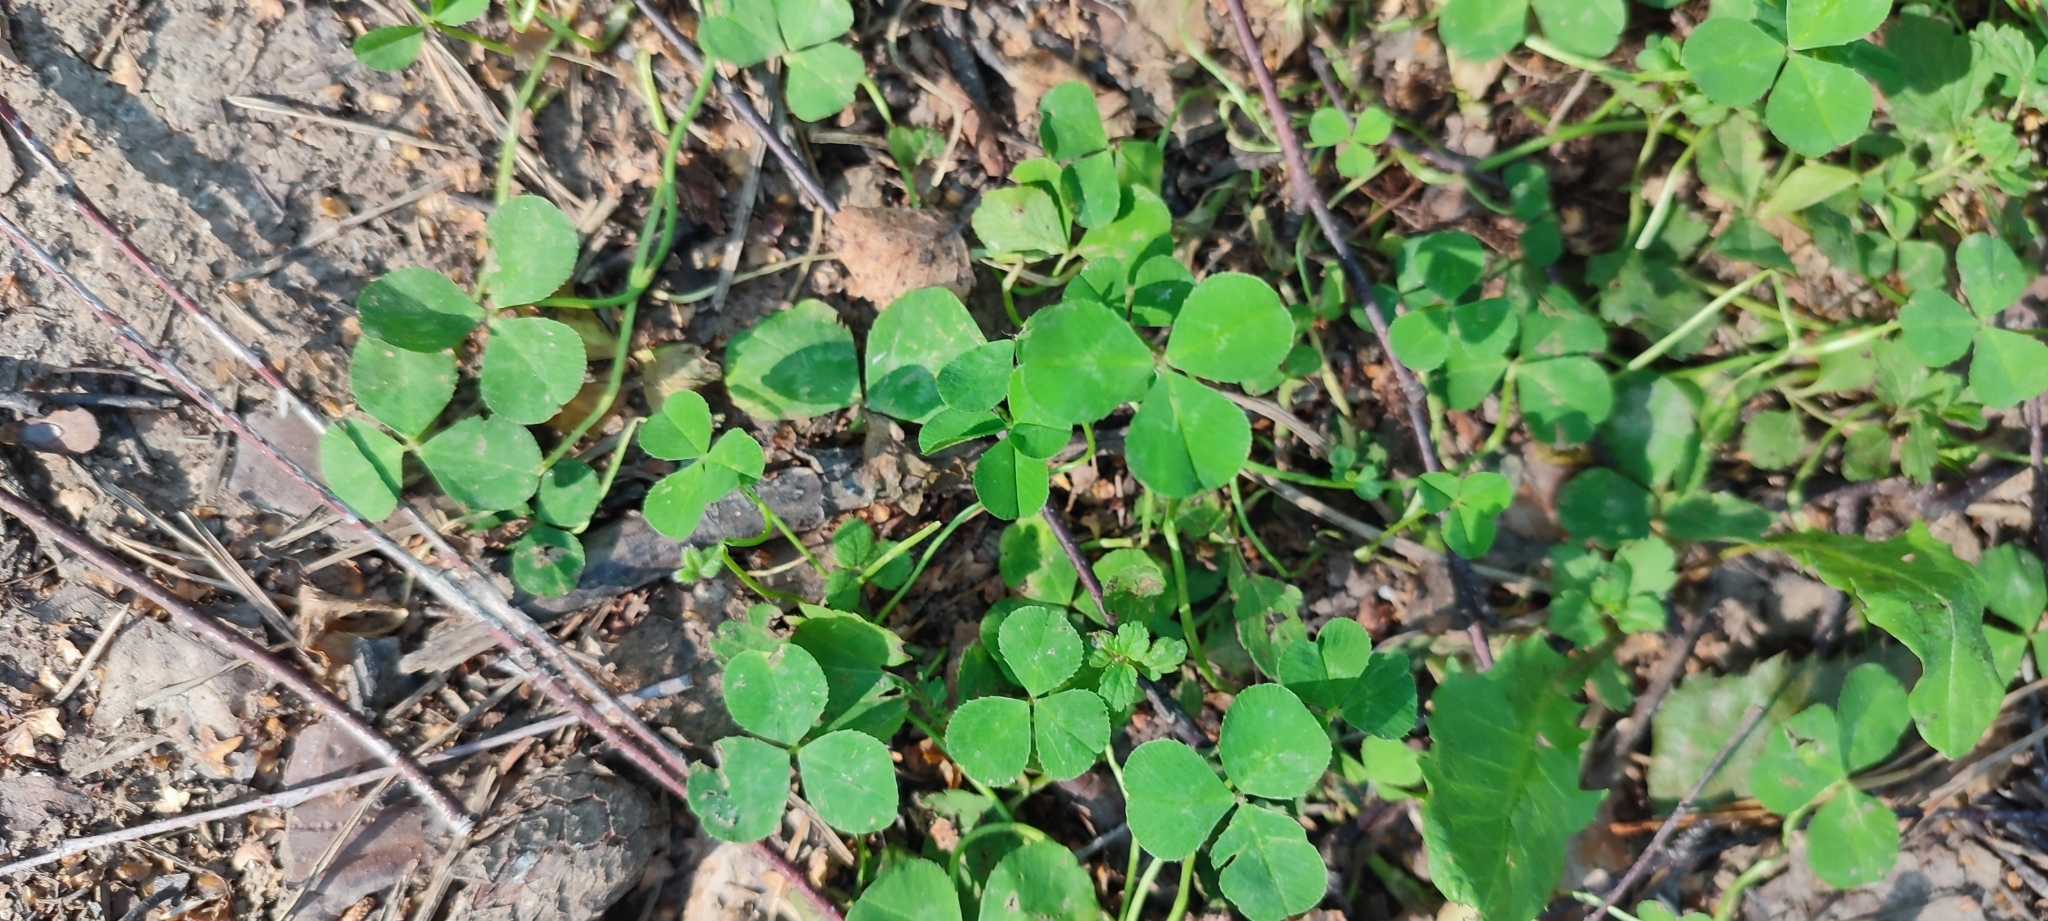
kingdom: Plantae
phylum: Tracheophyta
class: Magnoliopsida
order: Fabales
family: Fabaceae
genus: Trifolium
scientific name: Trifolium repens
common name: White clover
